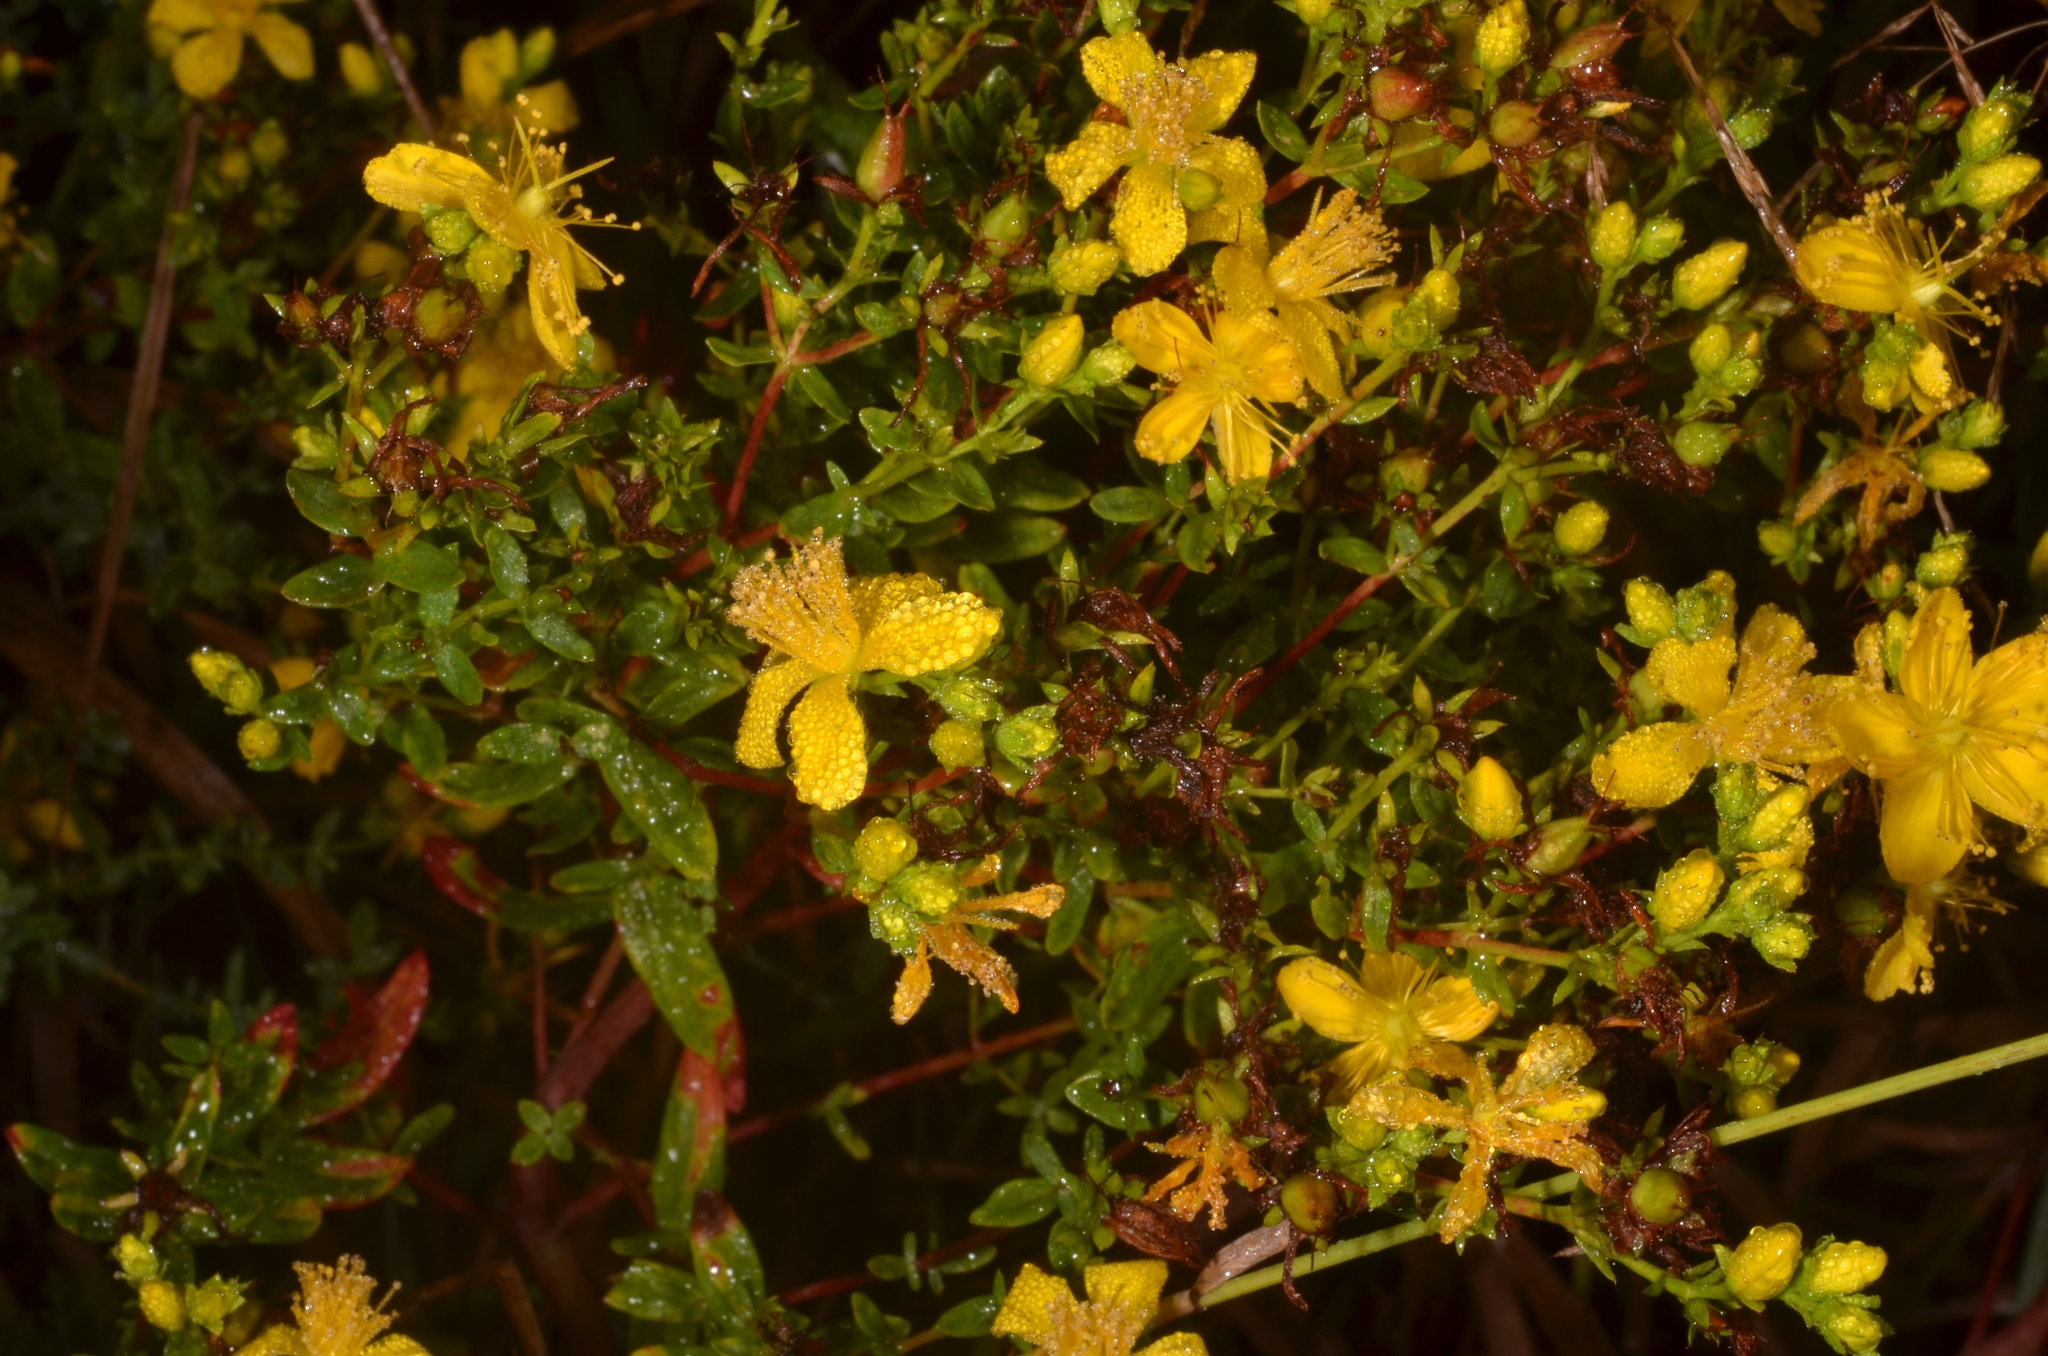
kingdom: Plantae
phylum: Tracheophyta
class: Magnoliopsida
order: Malpighiales
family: Hypericaceae
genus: Hypericum
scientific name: Hypericum perforatum
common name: Common st. johnswort
